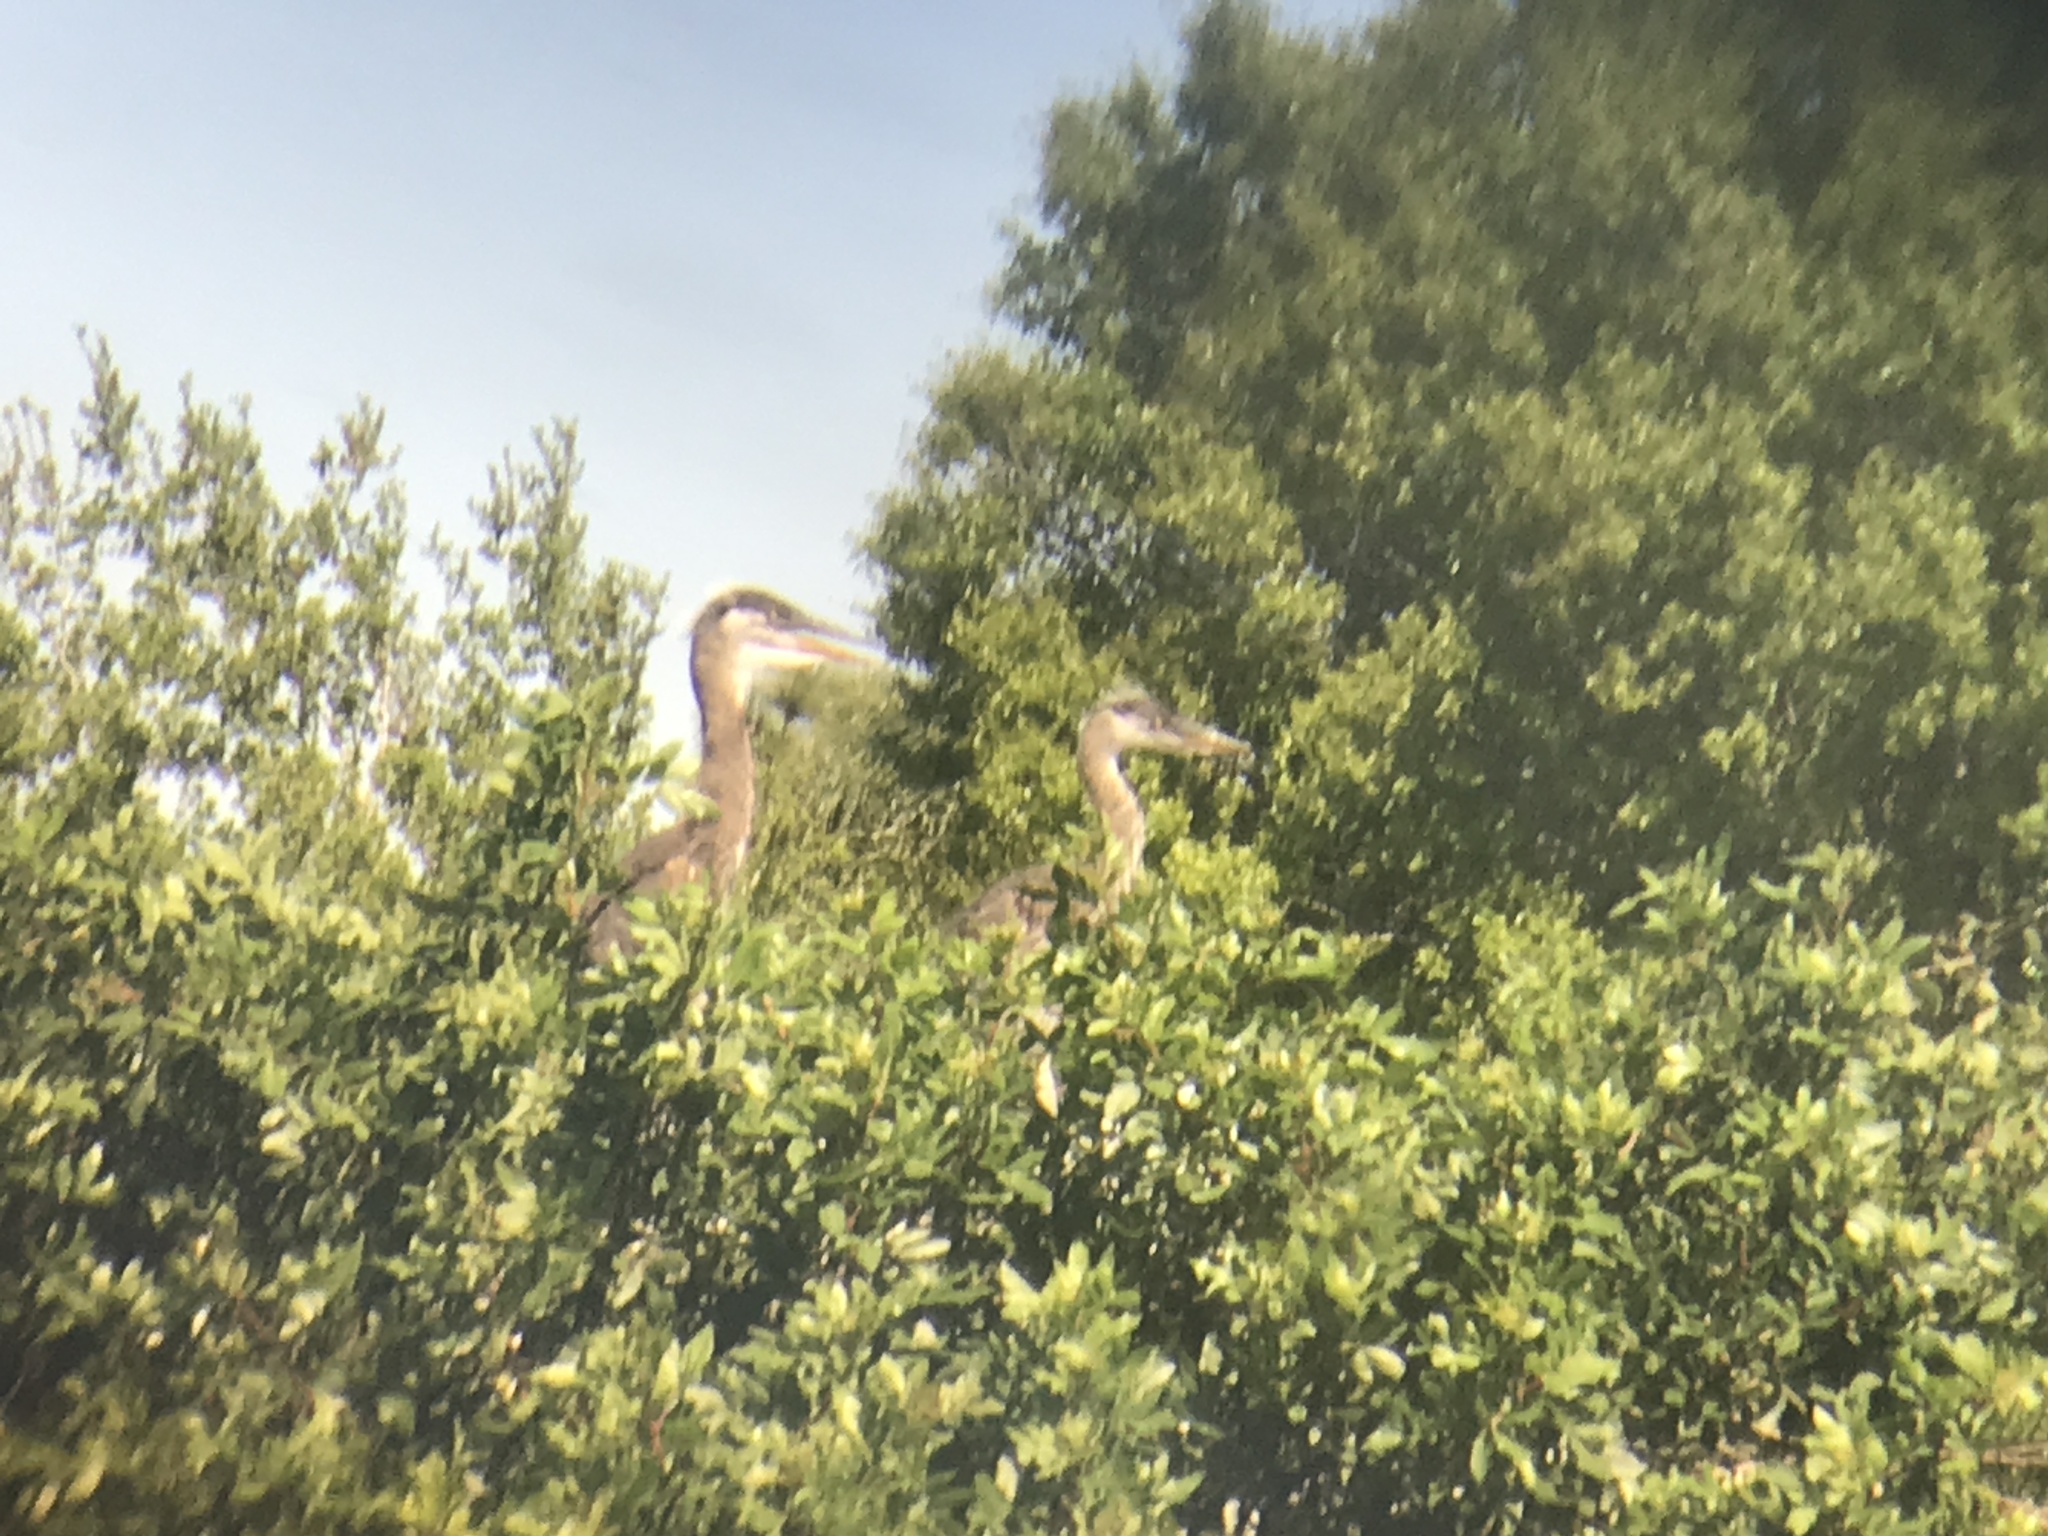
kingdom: Animalia
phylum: Chordata
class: Aves
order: Pelecaniformes
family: Ardeidae
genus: Ardea
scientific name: Ardea herodias
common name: Great blue heron
